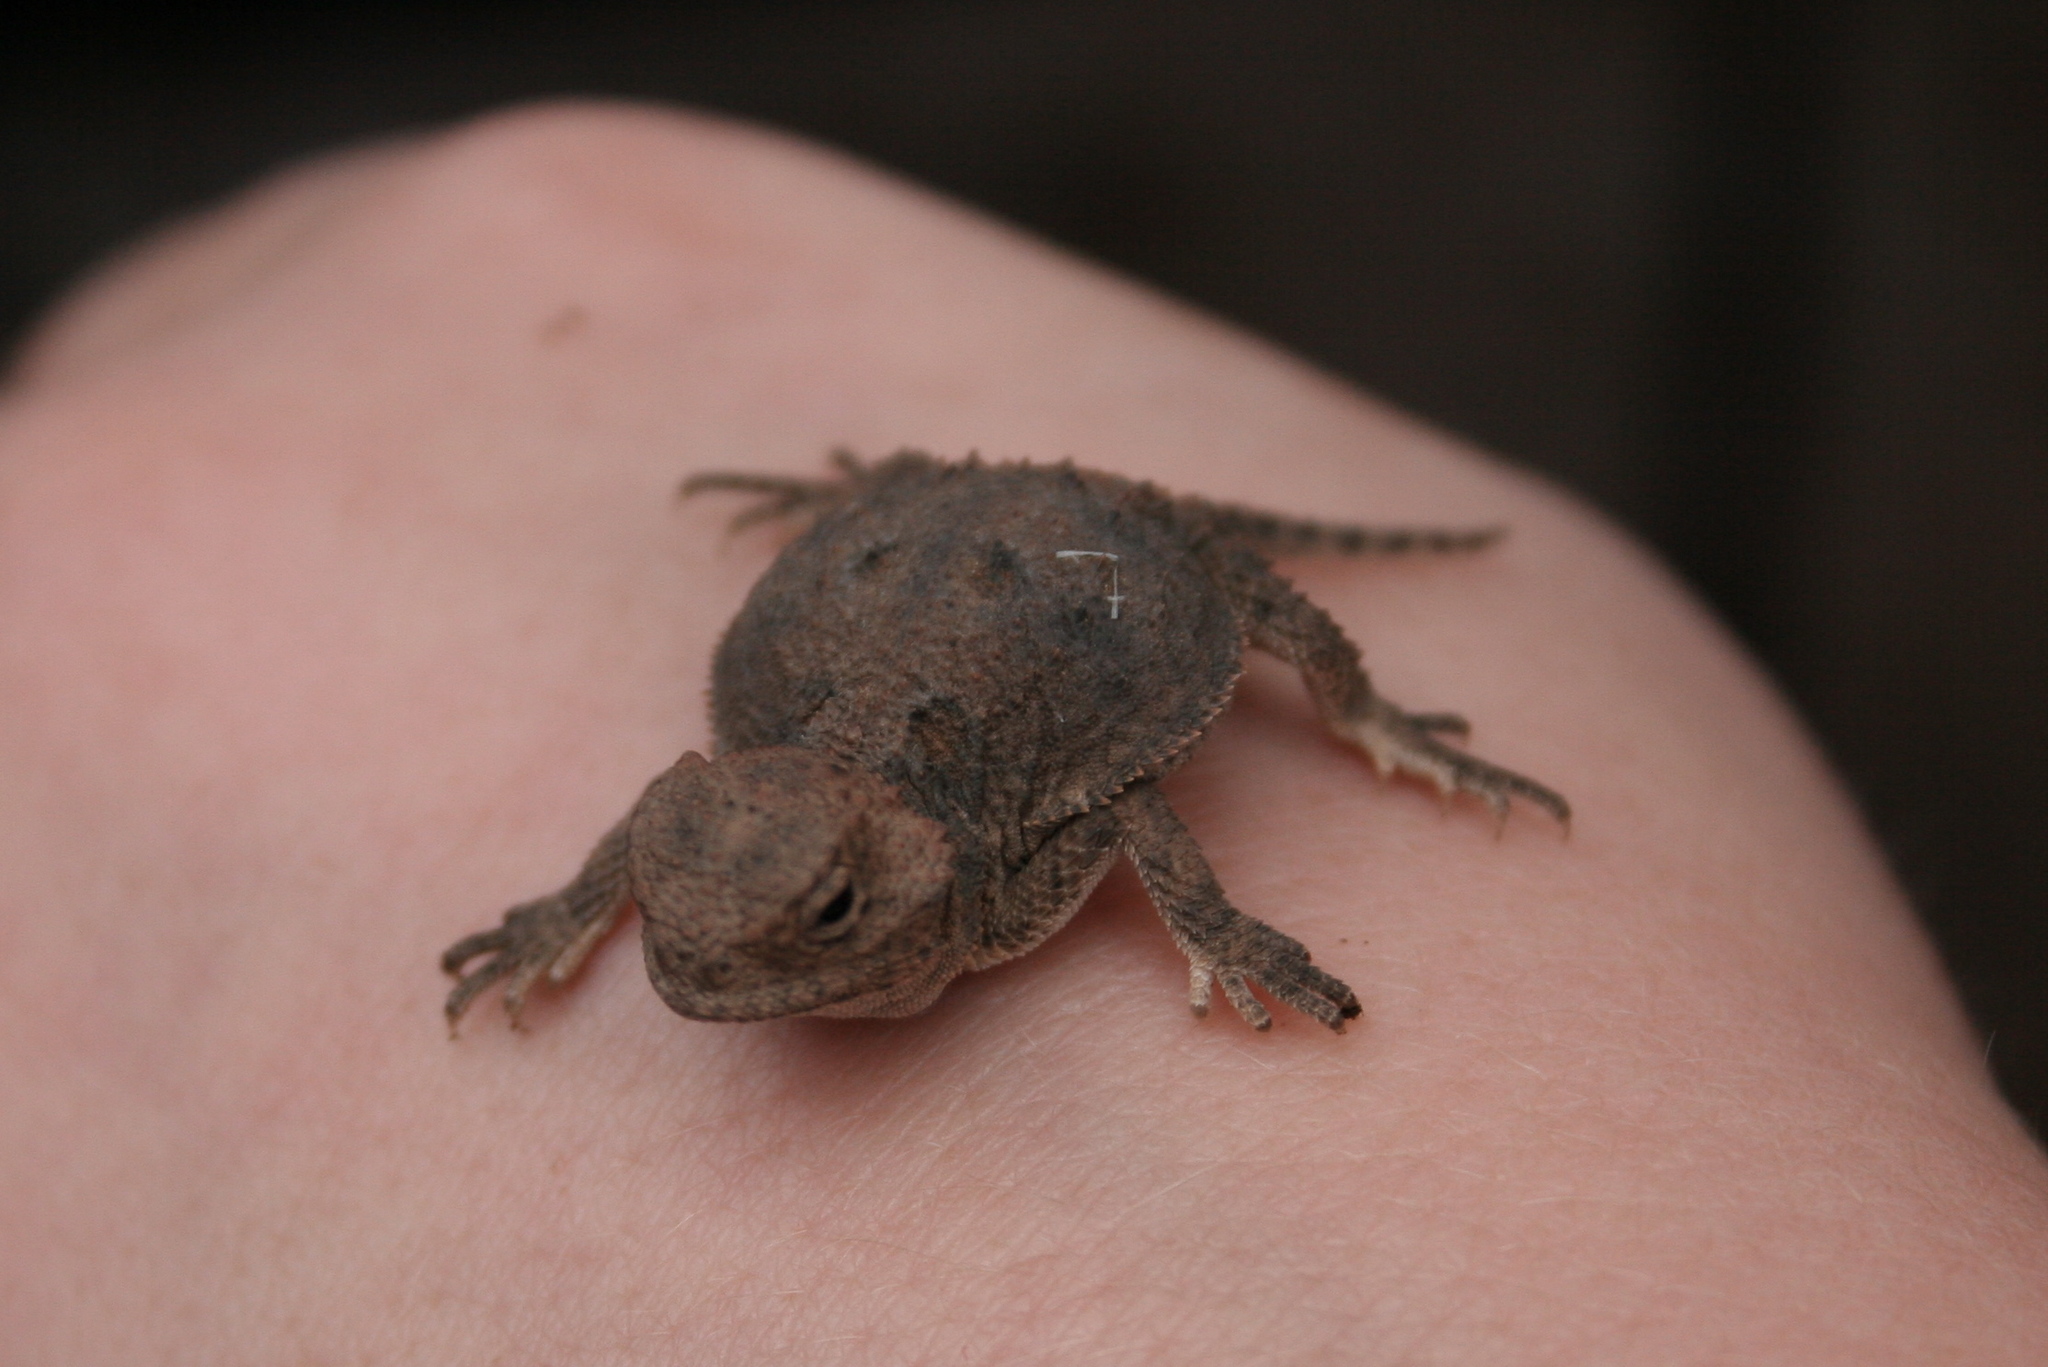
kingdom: Animalia
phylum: Chordata
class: Squamata
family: Phrynosomatidae
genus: Phrynosoma
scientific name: Phrynosoma solare
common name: Regal horned lizard
